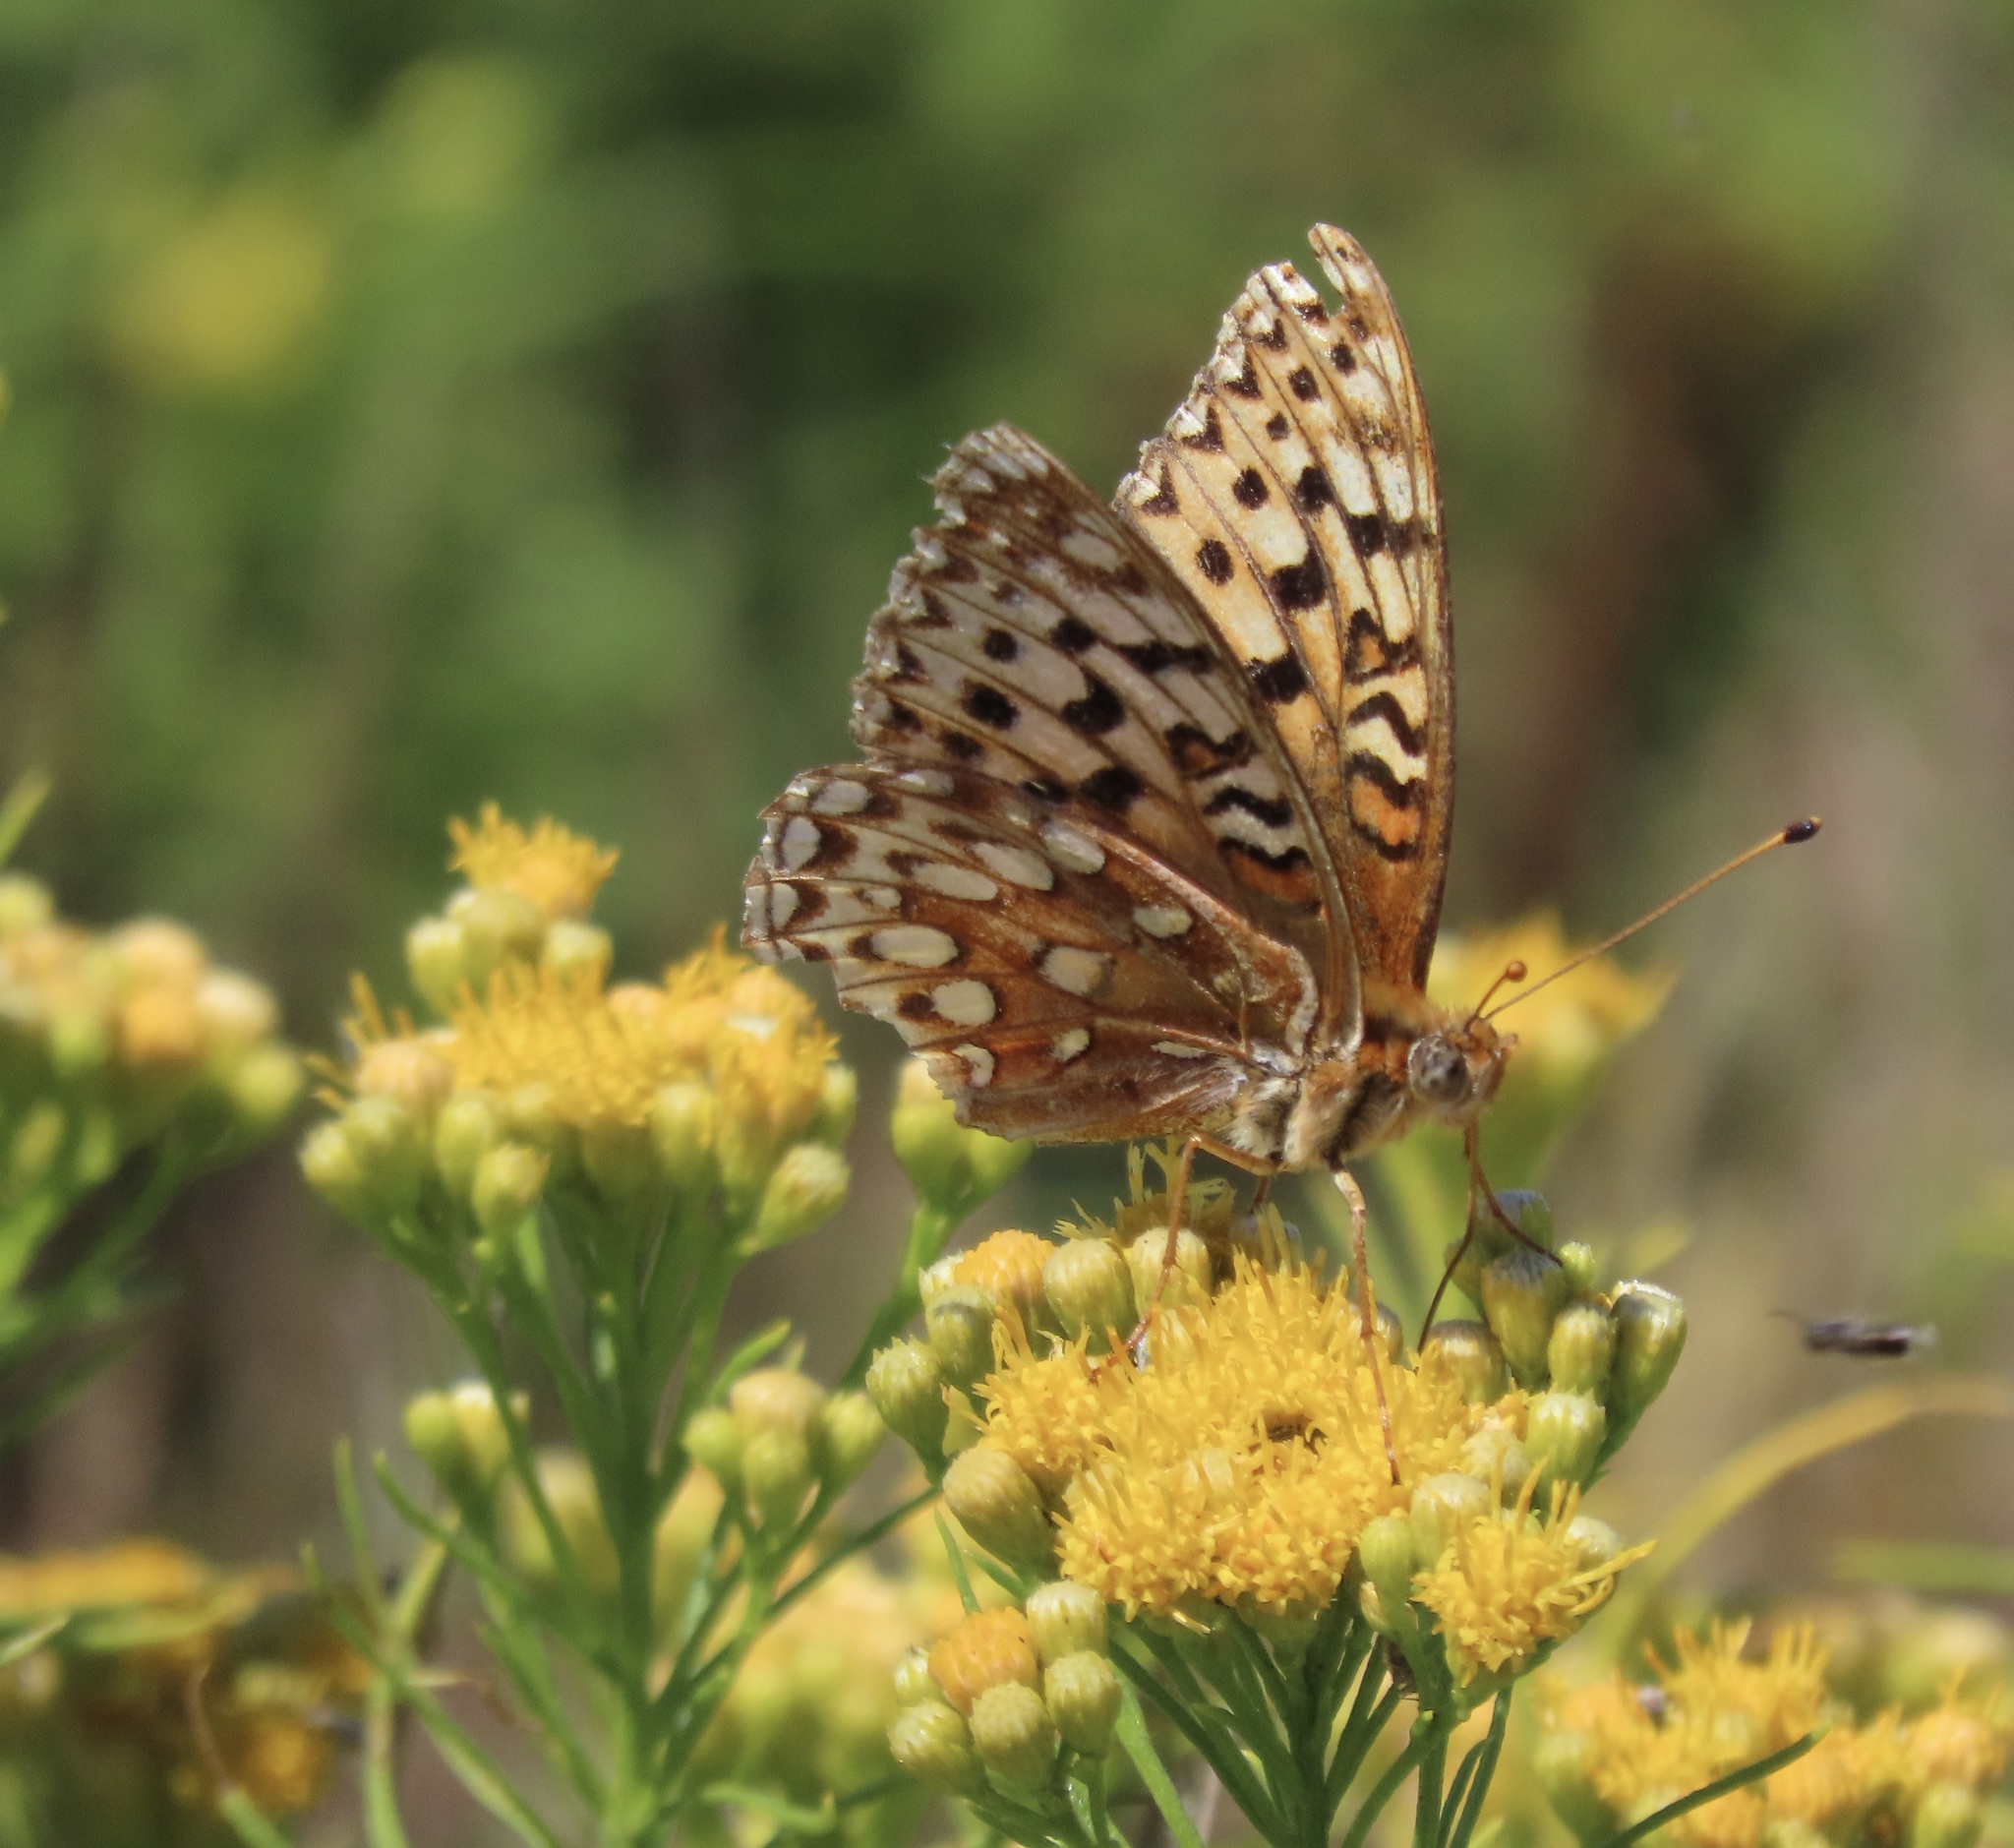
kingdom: Animalia
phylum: Arthropoda
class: Insecta
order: Lepidoptera
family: Nymphalidae
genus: Argynnis
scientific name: Argynnis coronis
